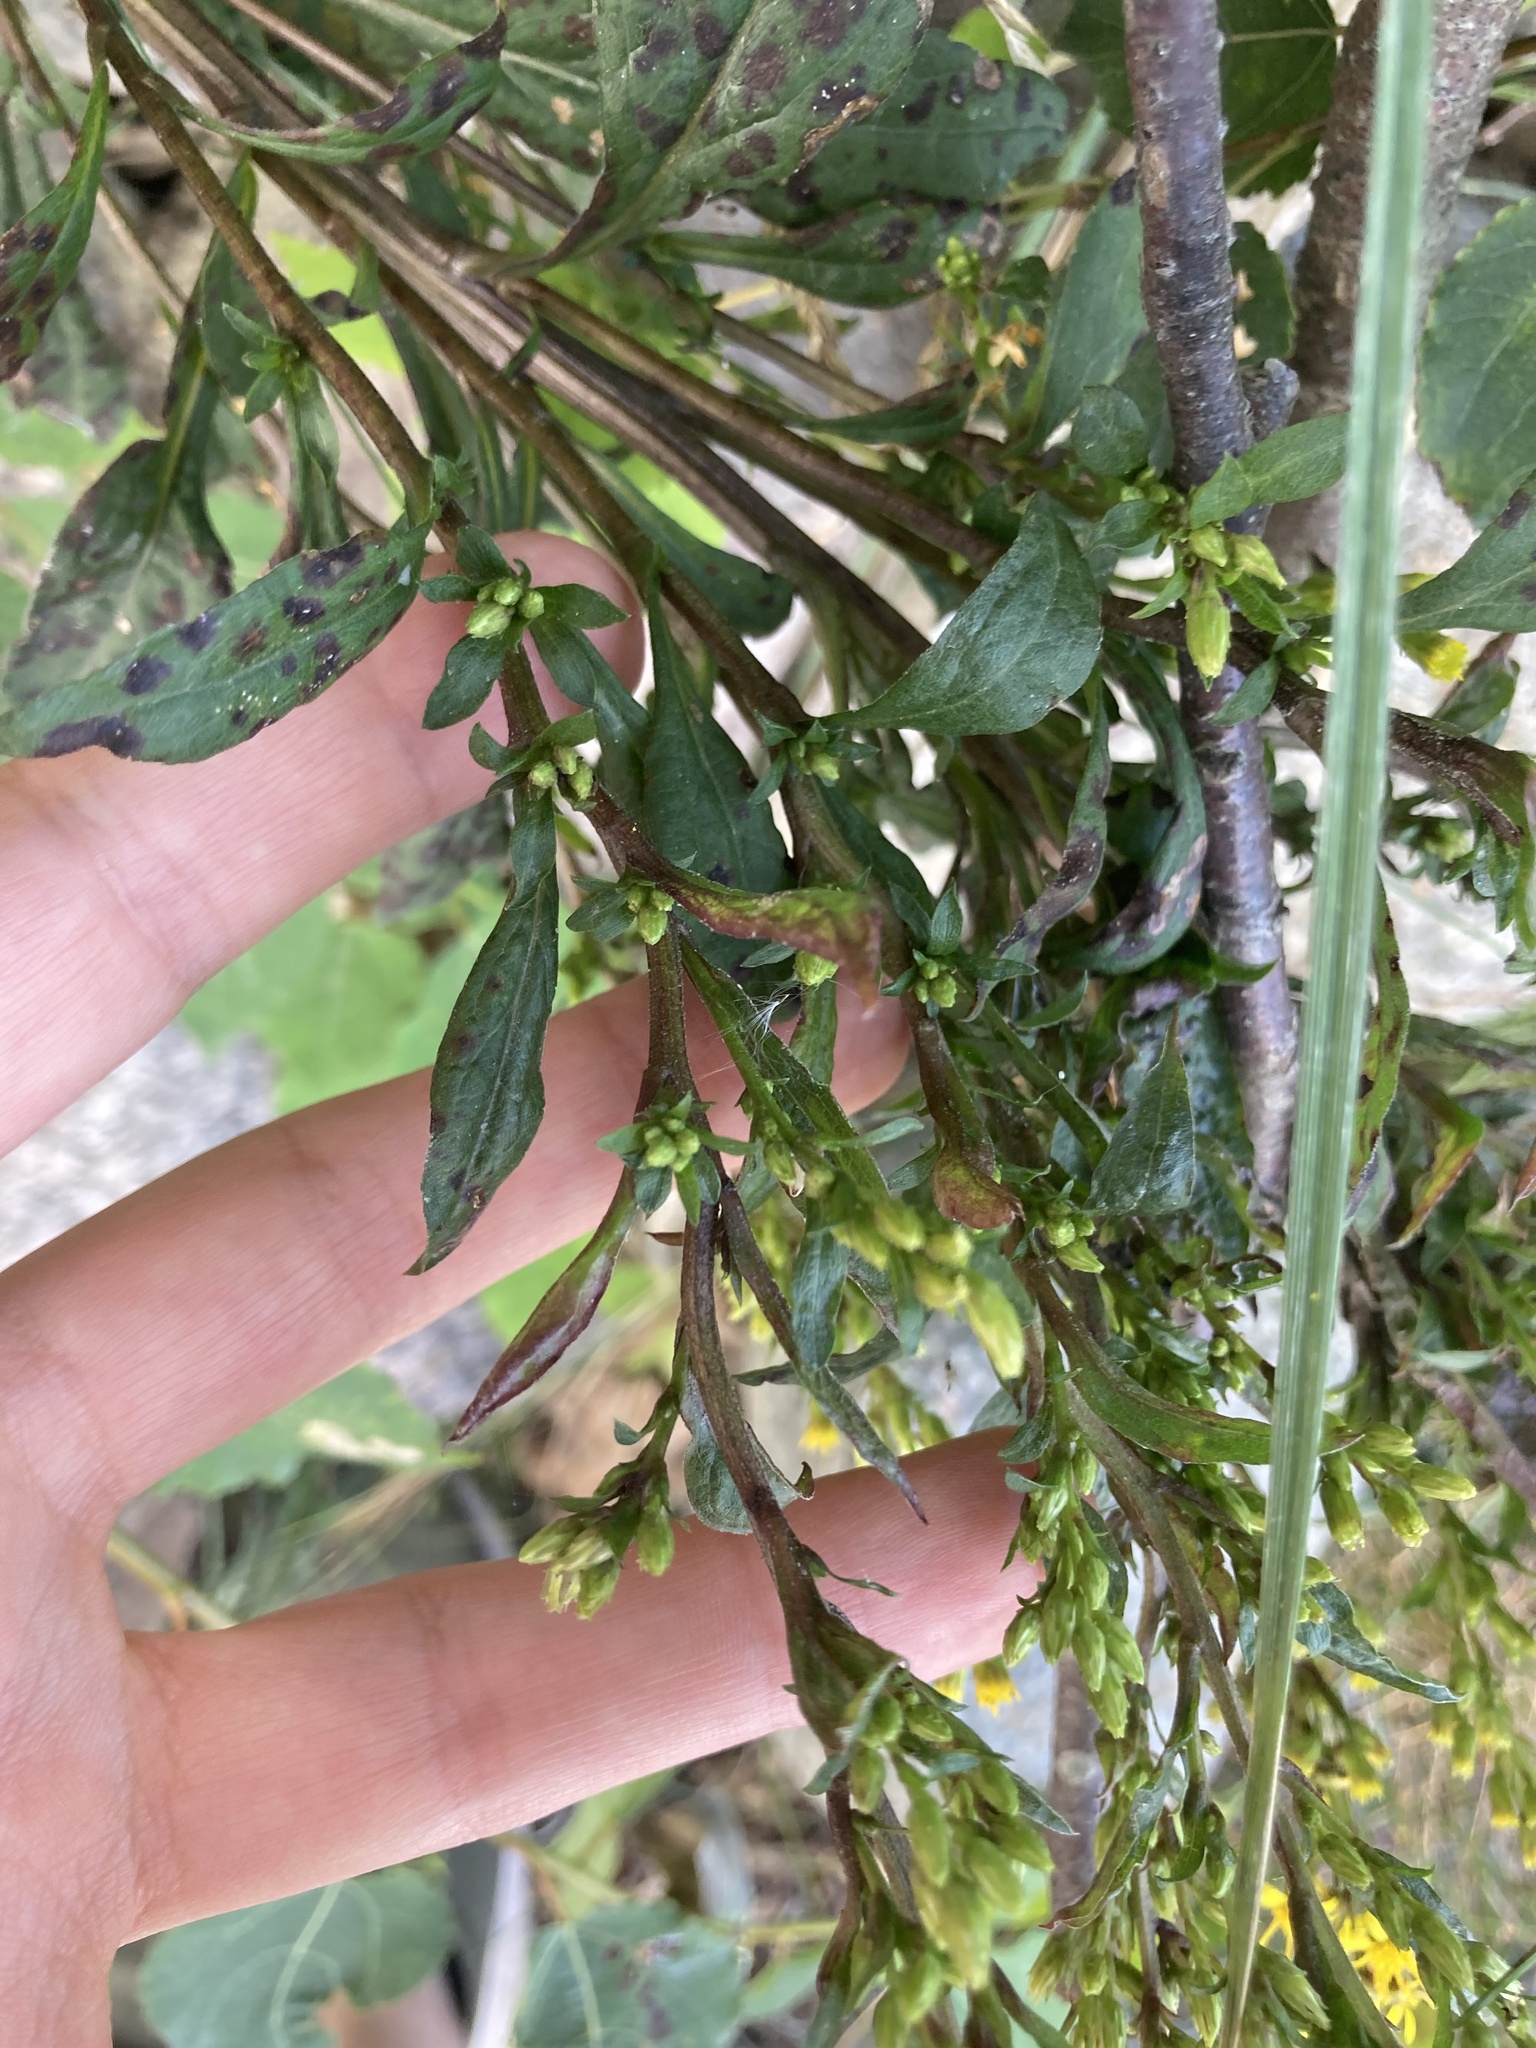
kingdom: Plantae
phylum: Tracheophyta
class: Magnoliopsida
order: Asterales
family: Asteraceae
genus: Solidago
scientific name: Solidago virgaurea
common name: Goldenrod
